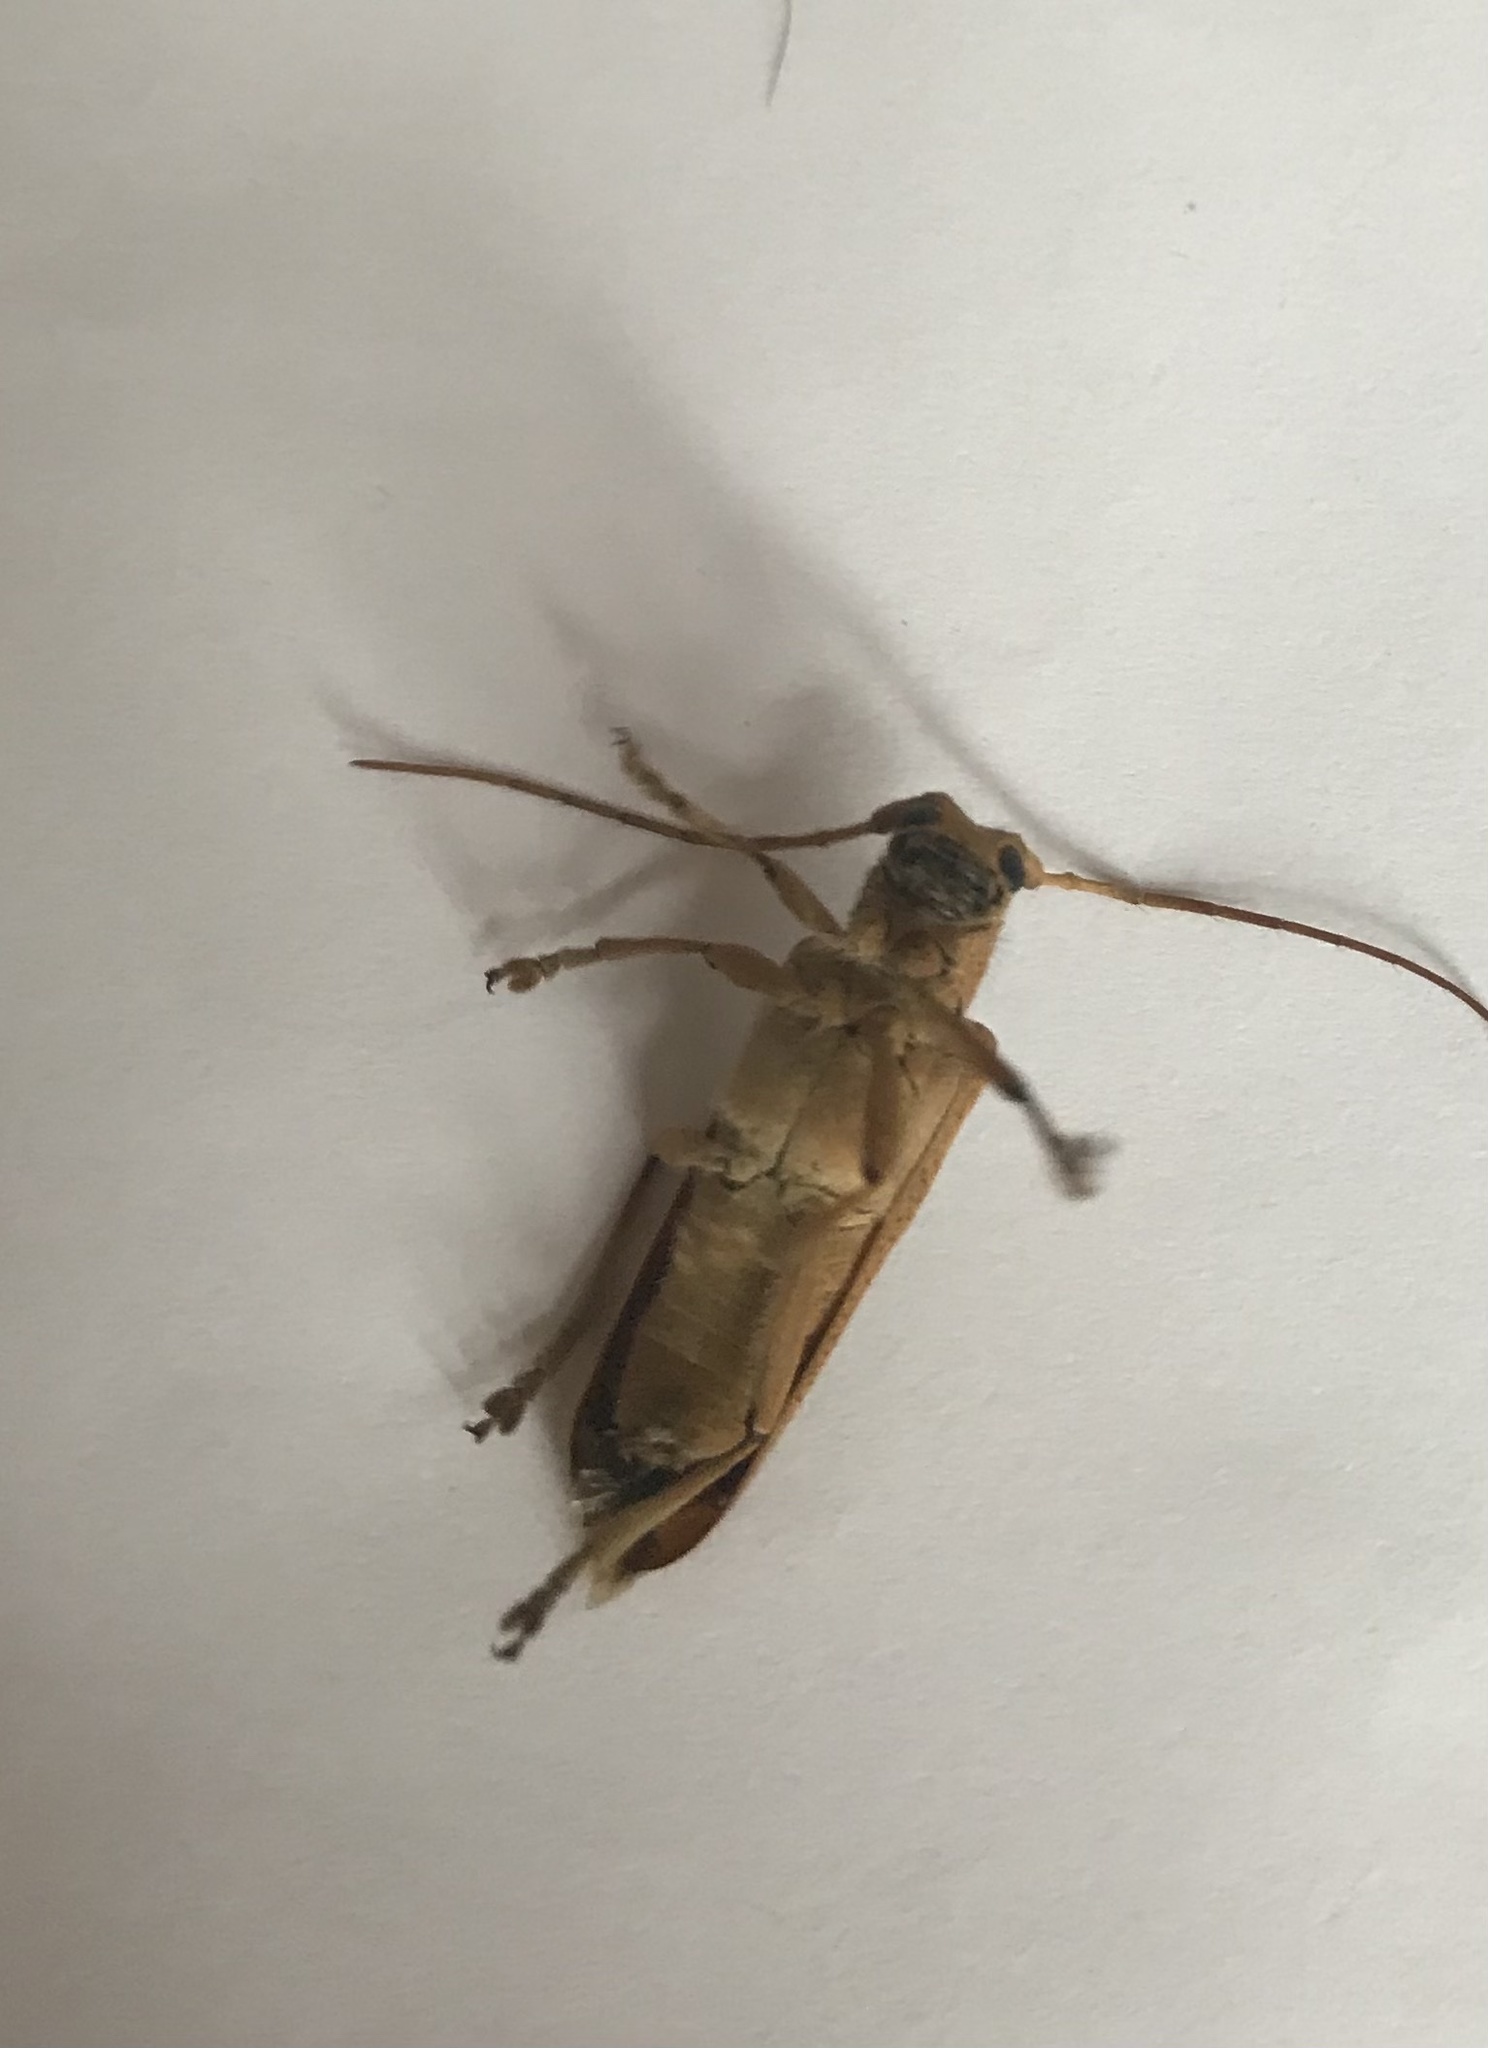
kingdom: Animalia
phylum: Arthropoda
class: Insecta
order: Coleoptera
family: Cerambycidae
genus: Saperda
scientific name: Saperda calcarata
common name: Poplar borer
